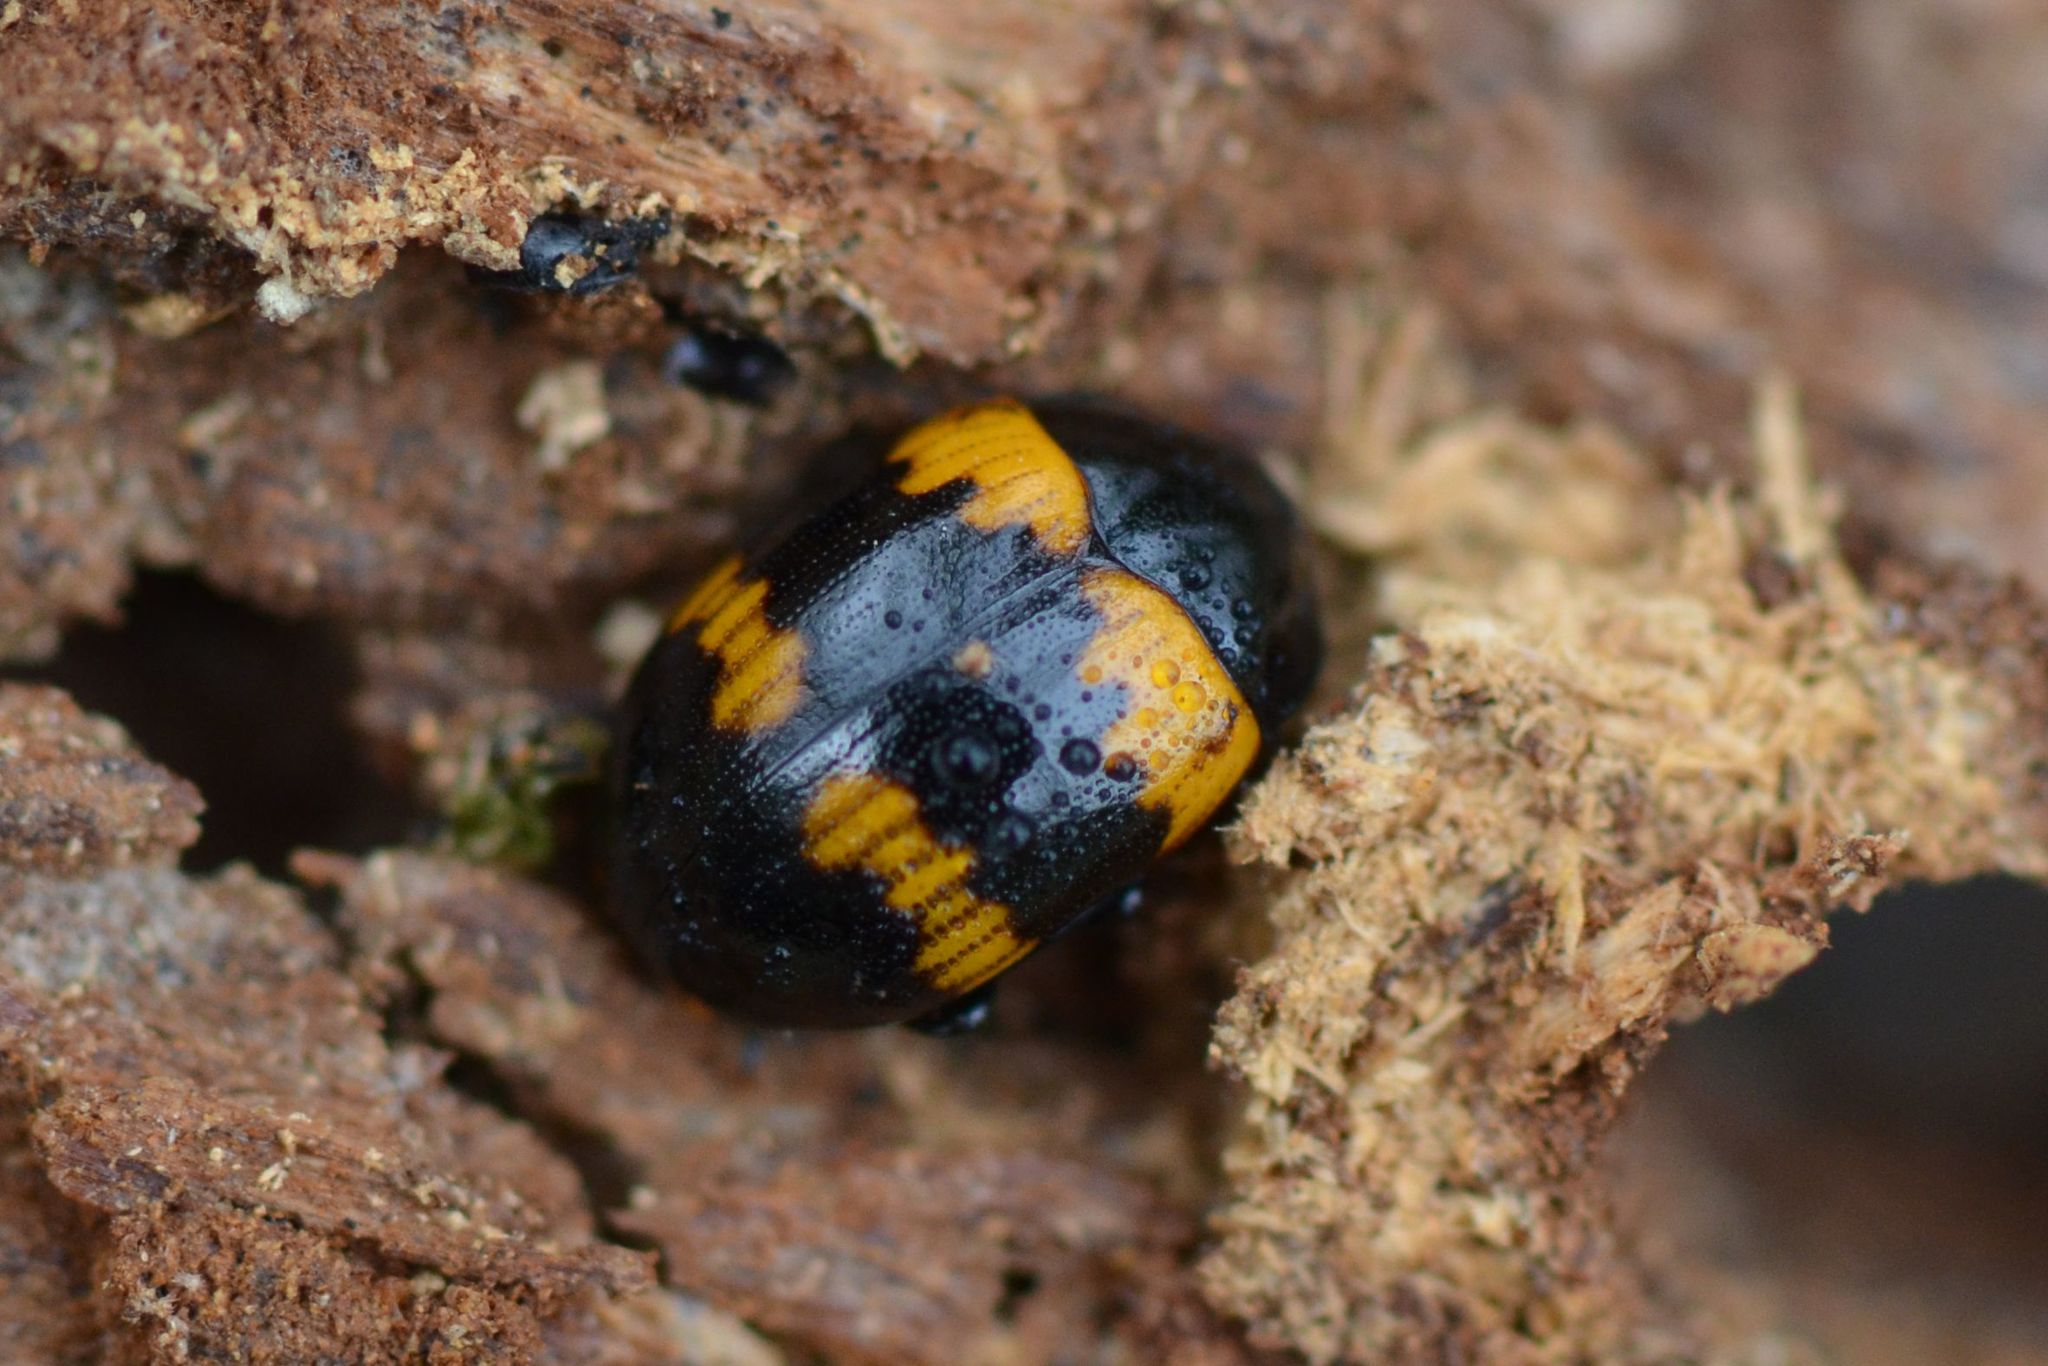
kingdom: Animalia
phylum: Arthropoda
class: Insecta
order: Coleoptera
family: Tenebrionidae
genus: Diaperis
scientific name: Diaperis boleti
